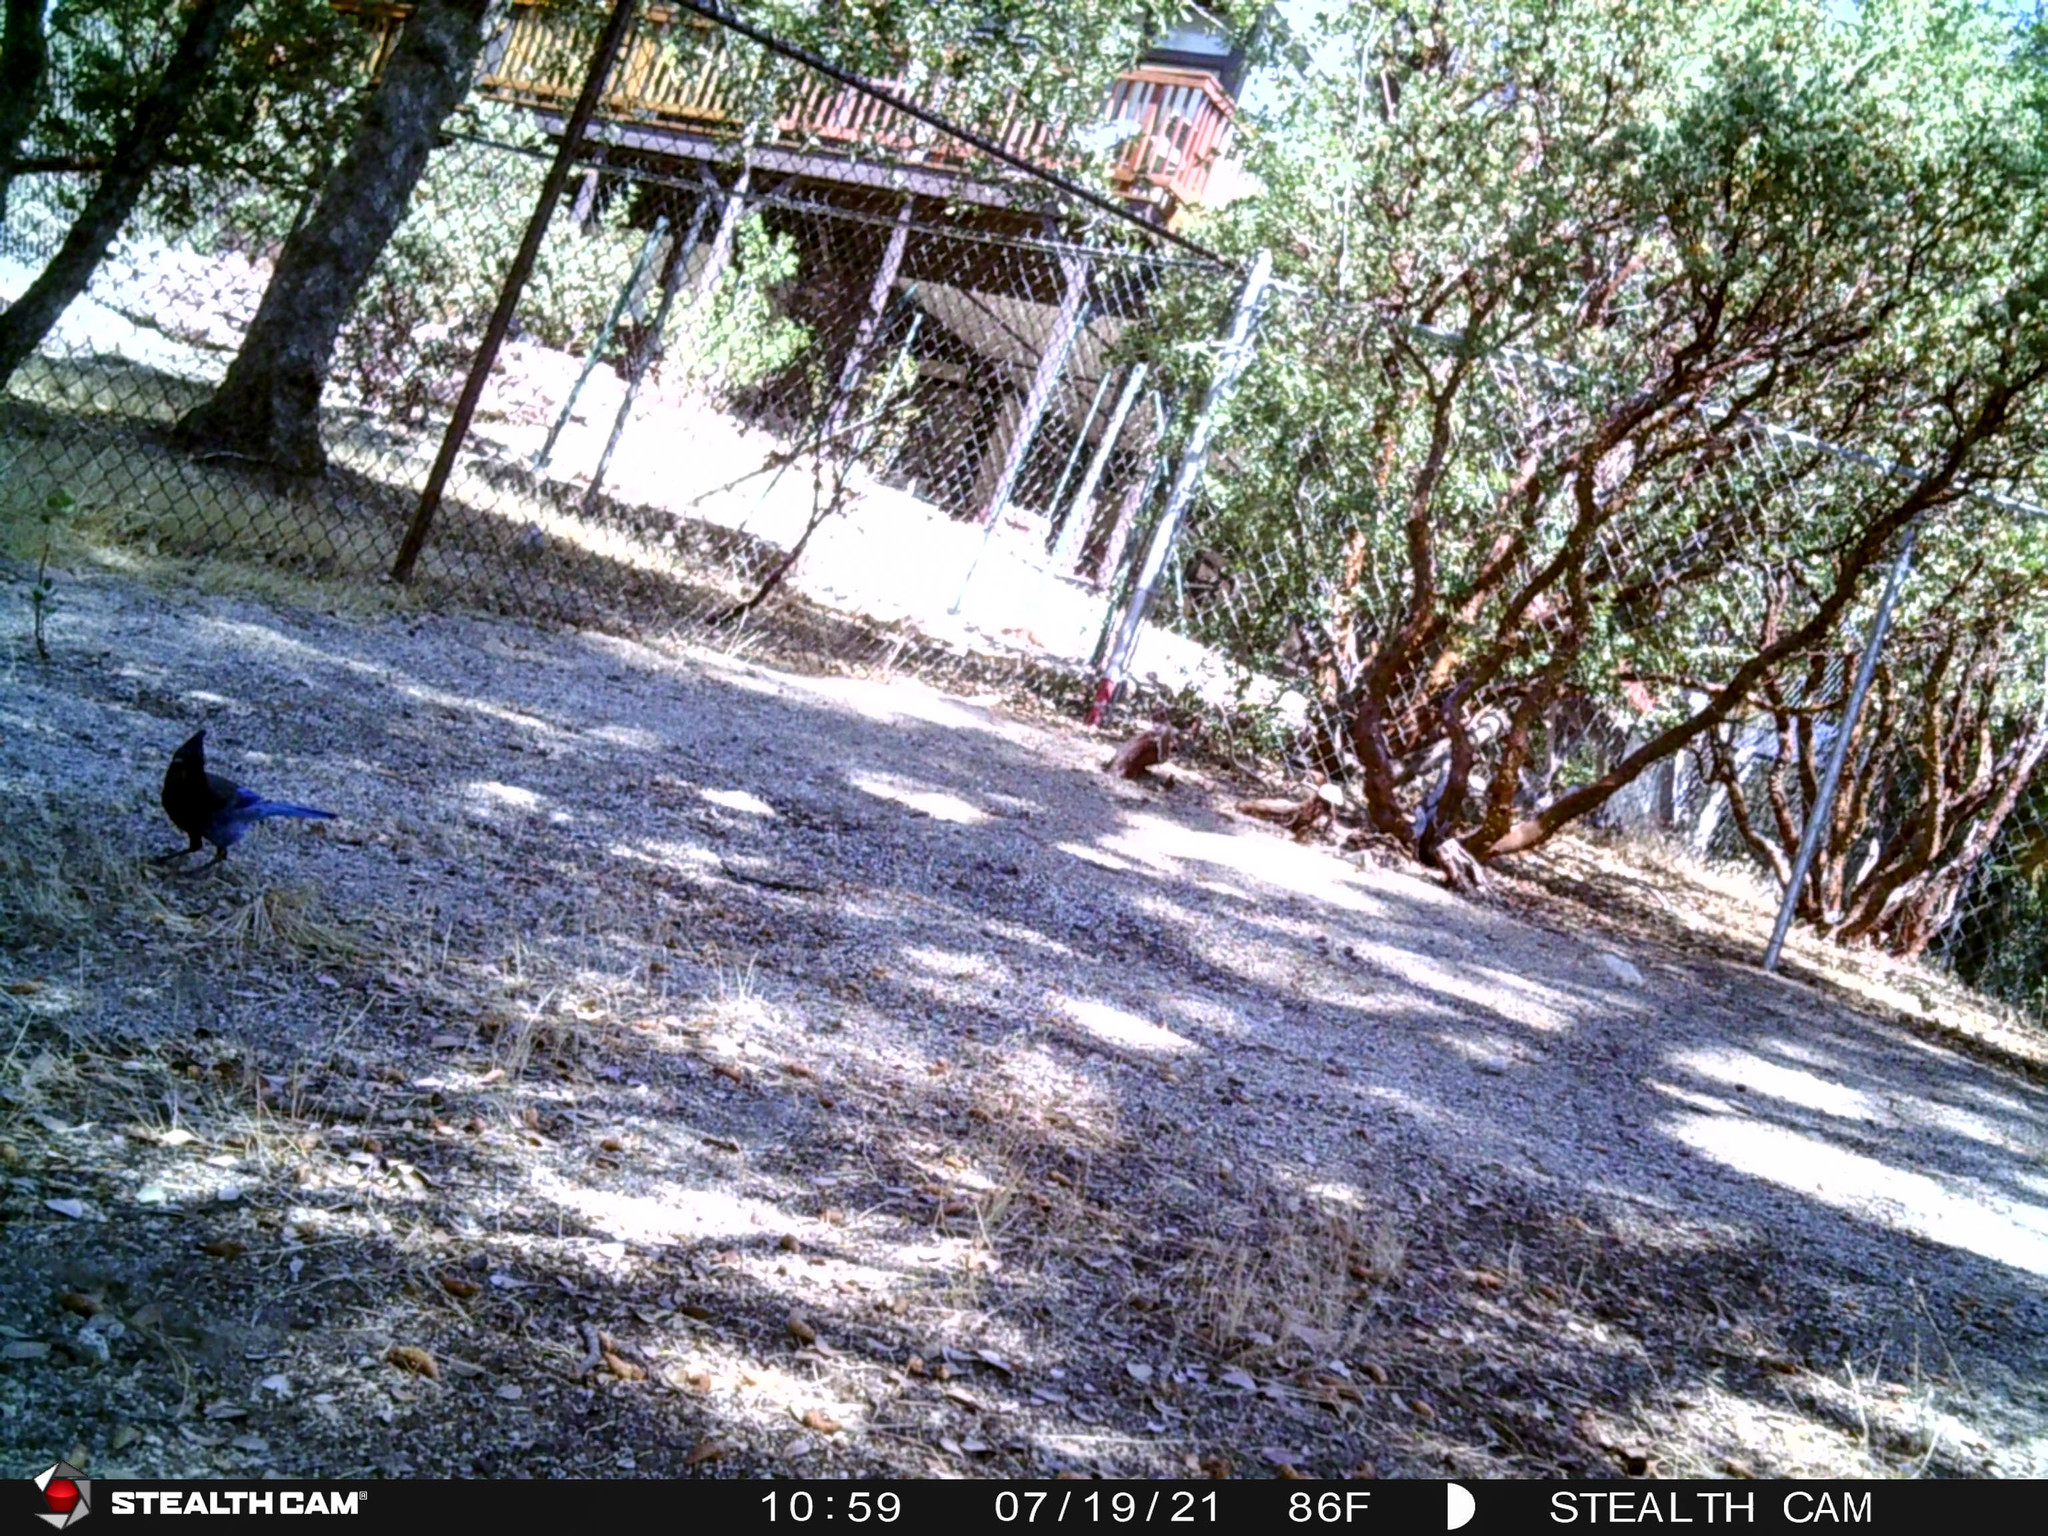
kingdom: Animalia
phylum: Chordata
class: Aves
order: Passeriformes
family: Corvidae
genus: Cyanocitta
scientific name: Cyanocitta stelleri
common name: Steller's jay
